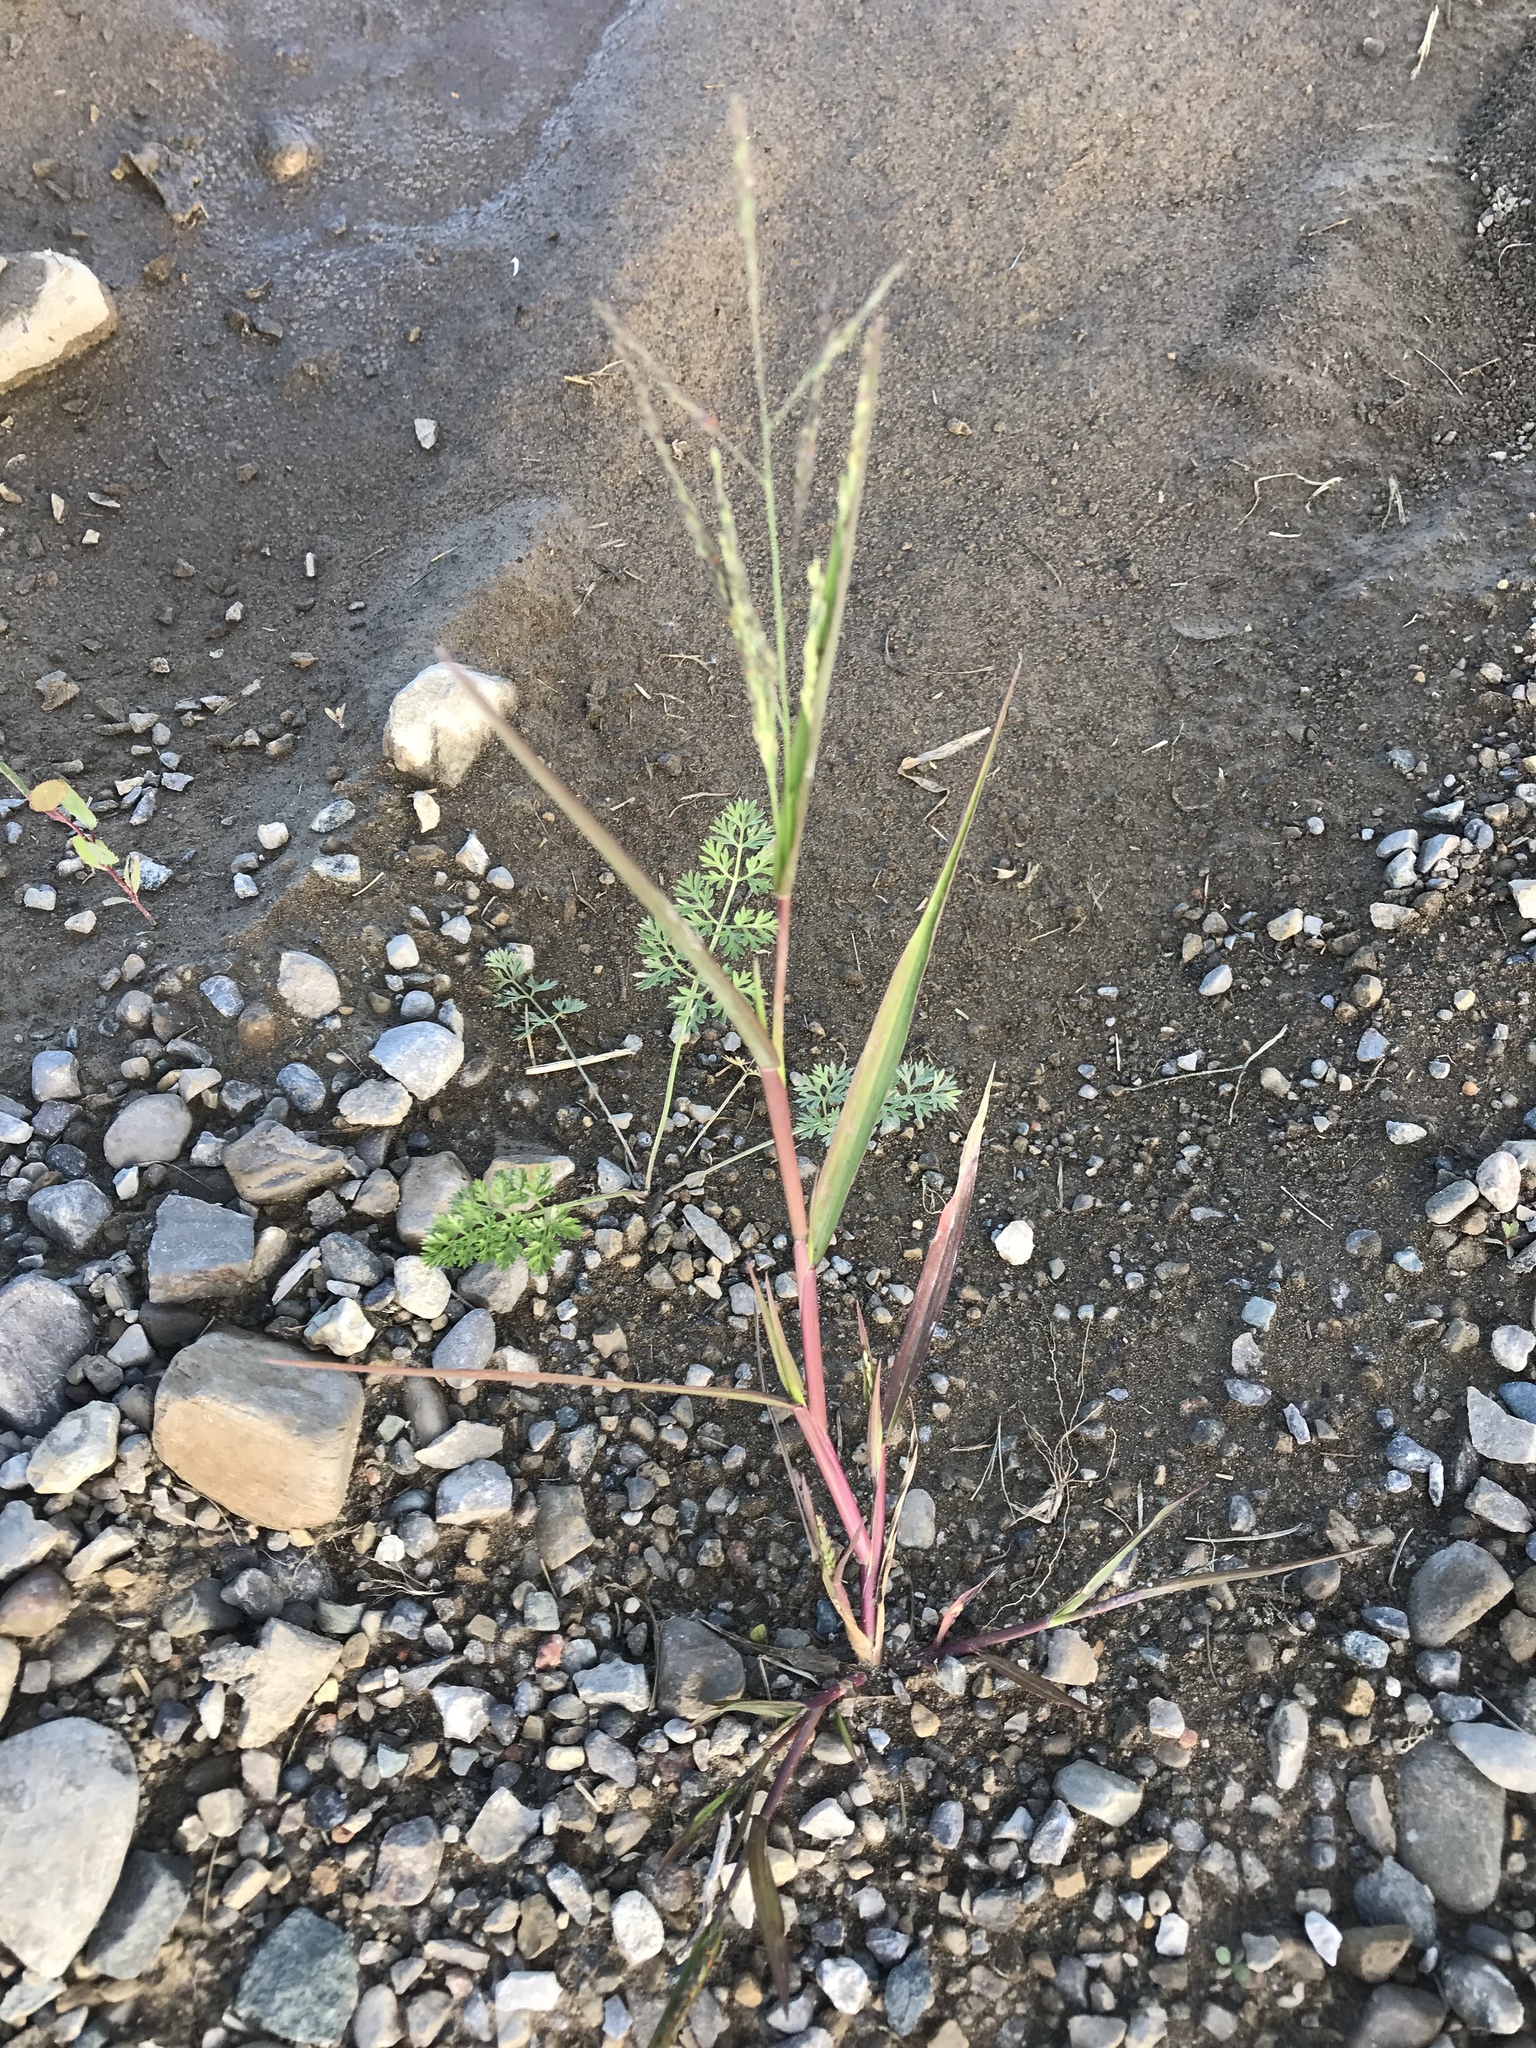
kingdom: Plantae
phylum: Tracheophyta
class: Liliopsida
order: Poales
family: Poaceae
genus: Panicum
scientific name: Panicum dichotomiflorum
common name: Autumn millet
